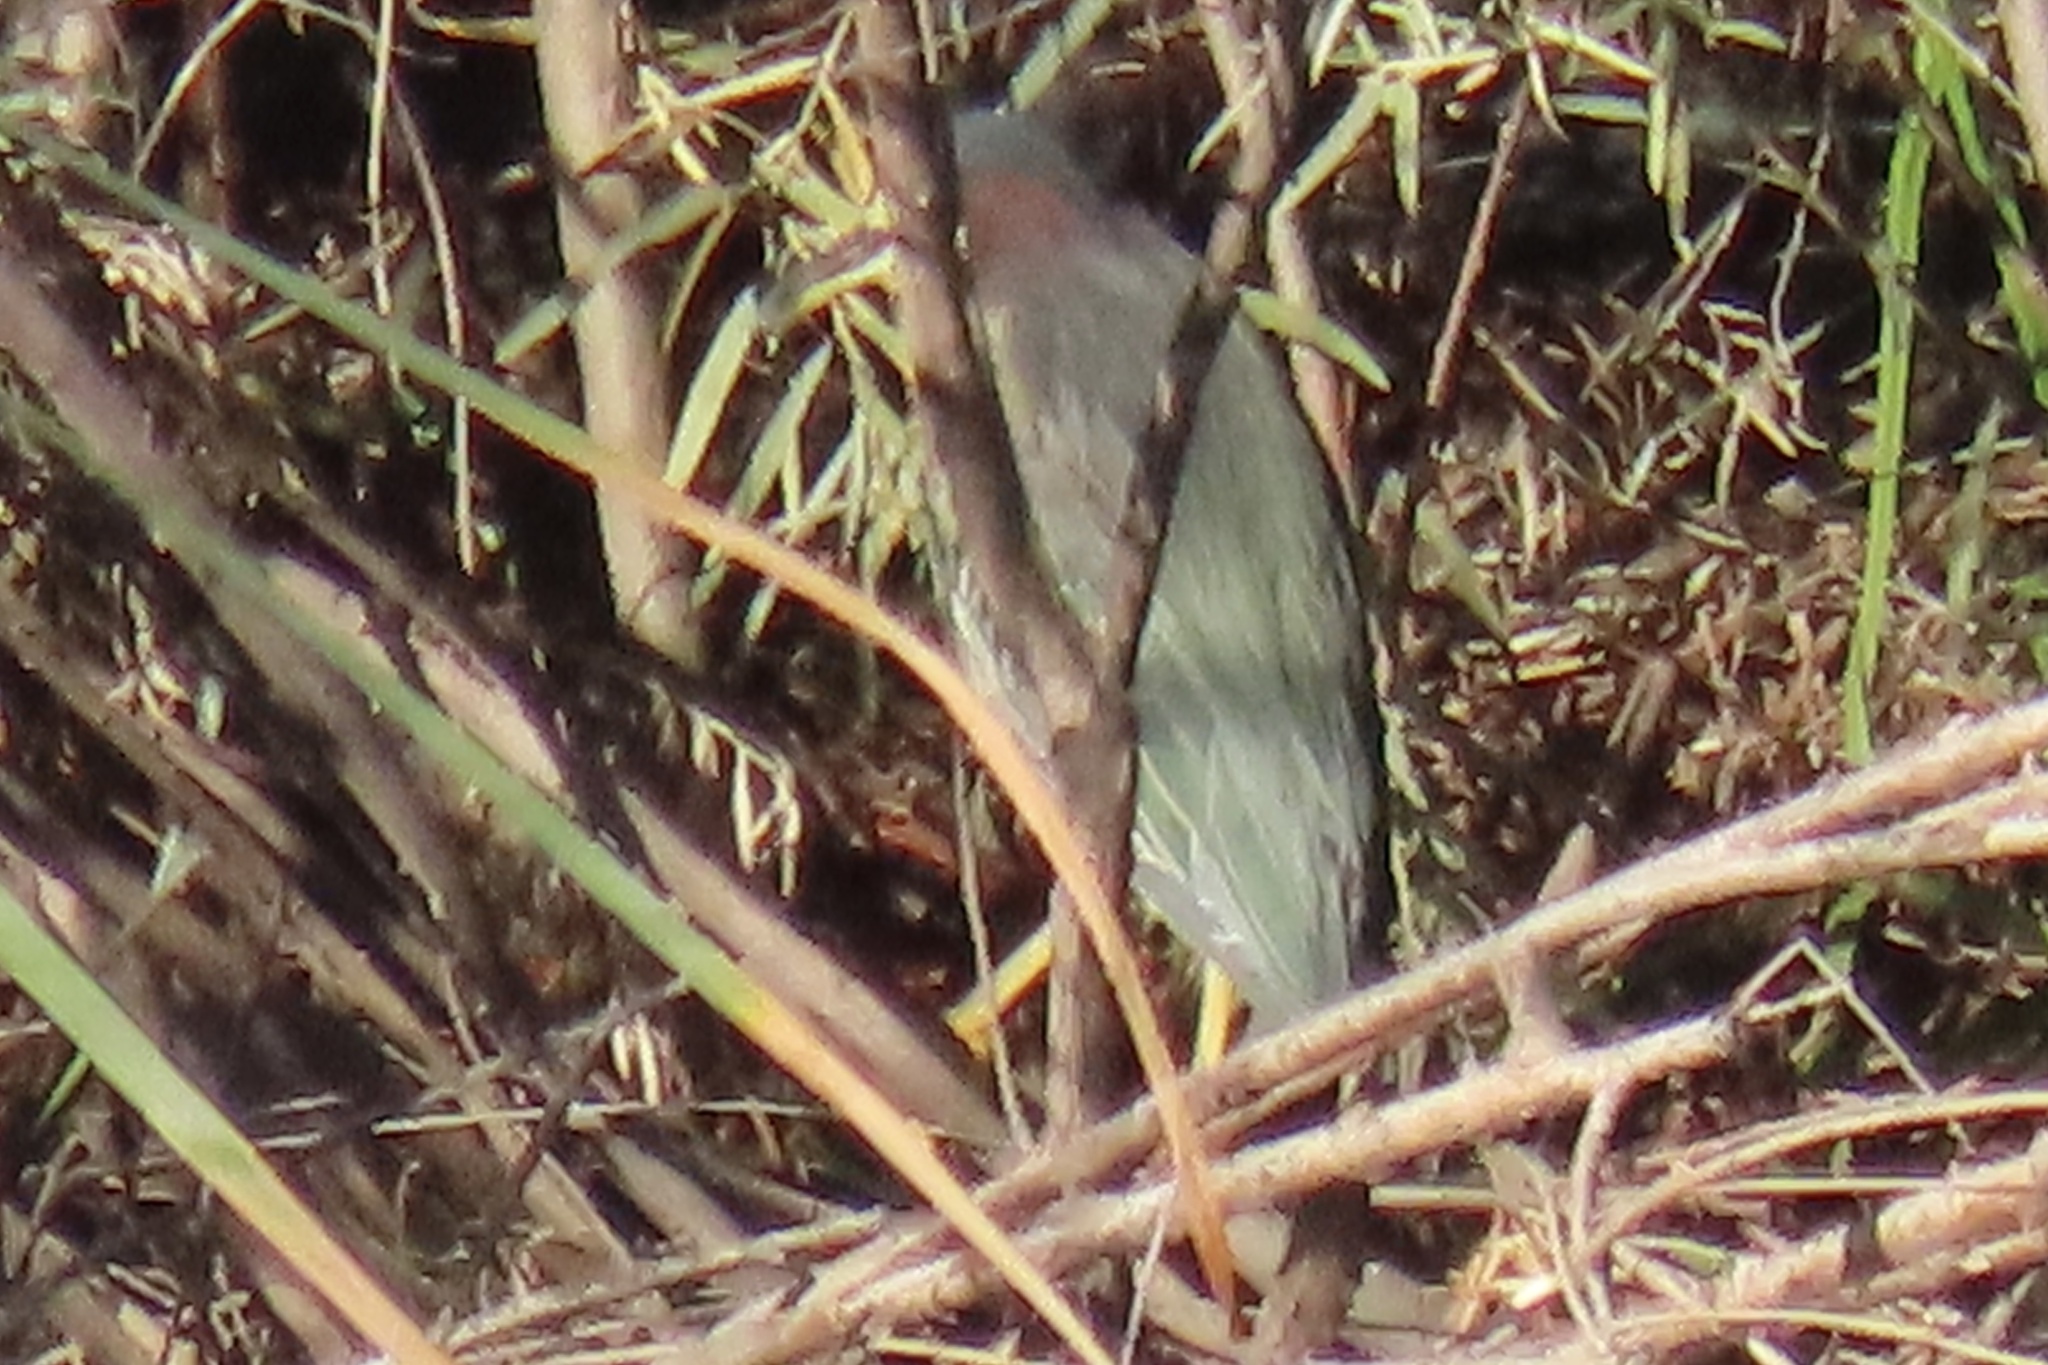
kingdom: Animalia
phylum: Chordata
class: Aves
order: Pelecaniformes
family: Ardeidae
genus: Butorides
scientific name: Butorides virescens
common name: Green heron
